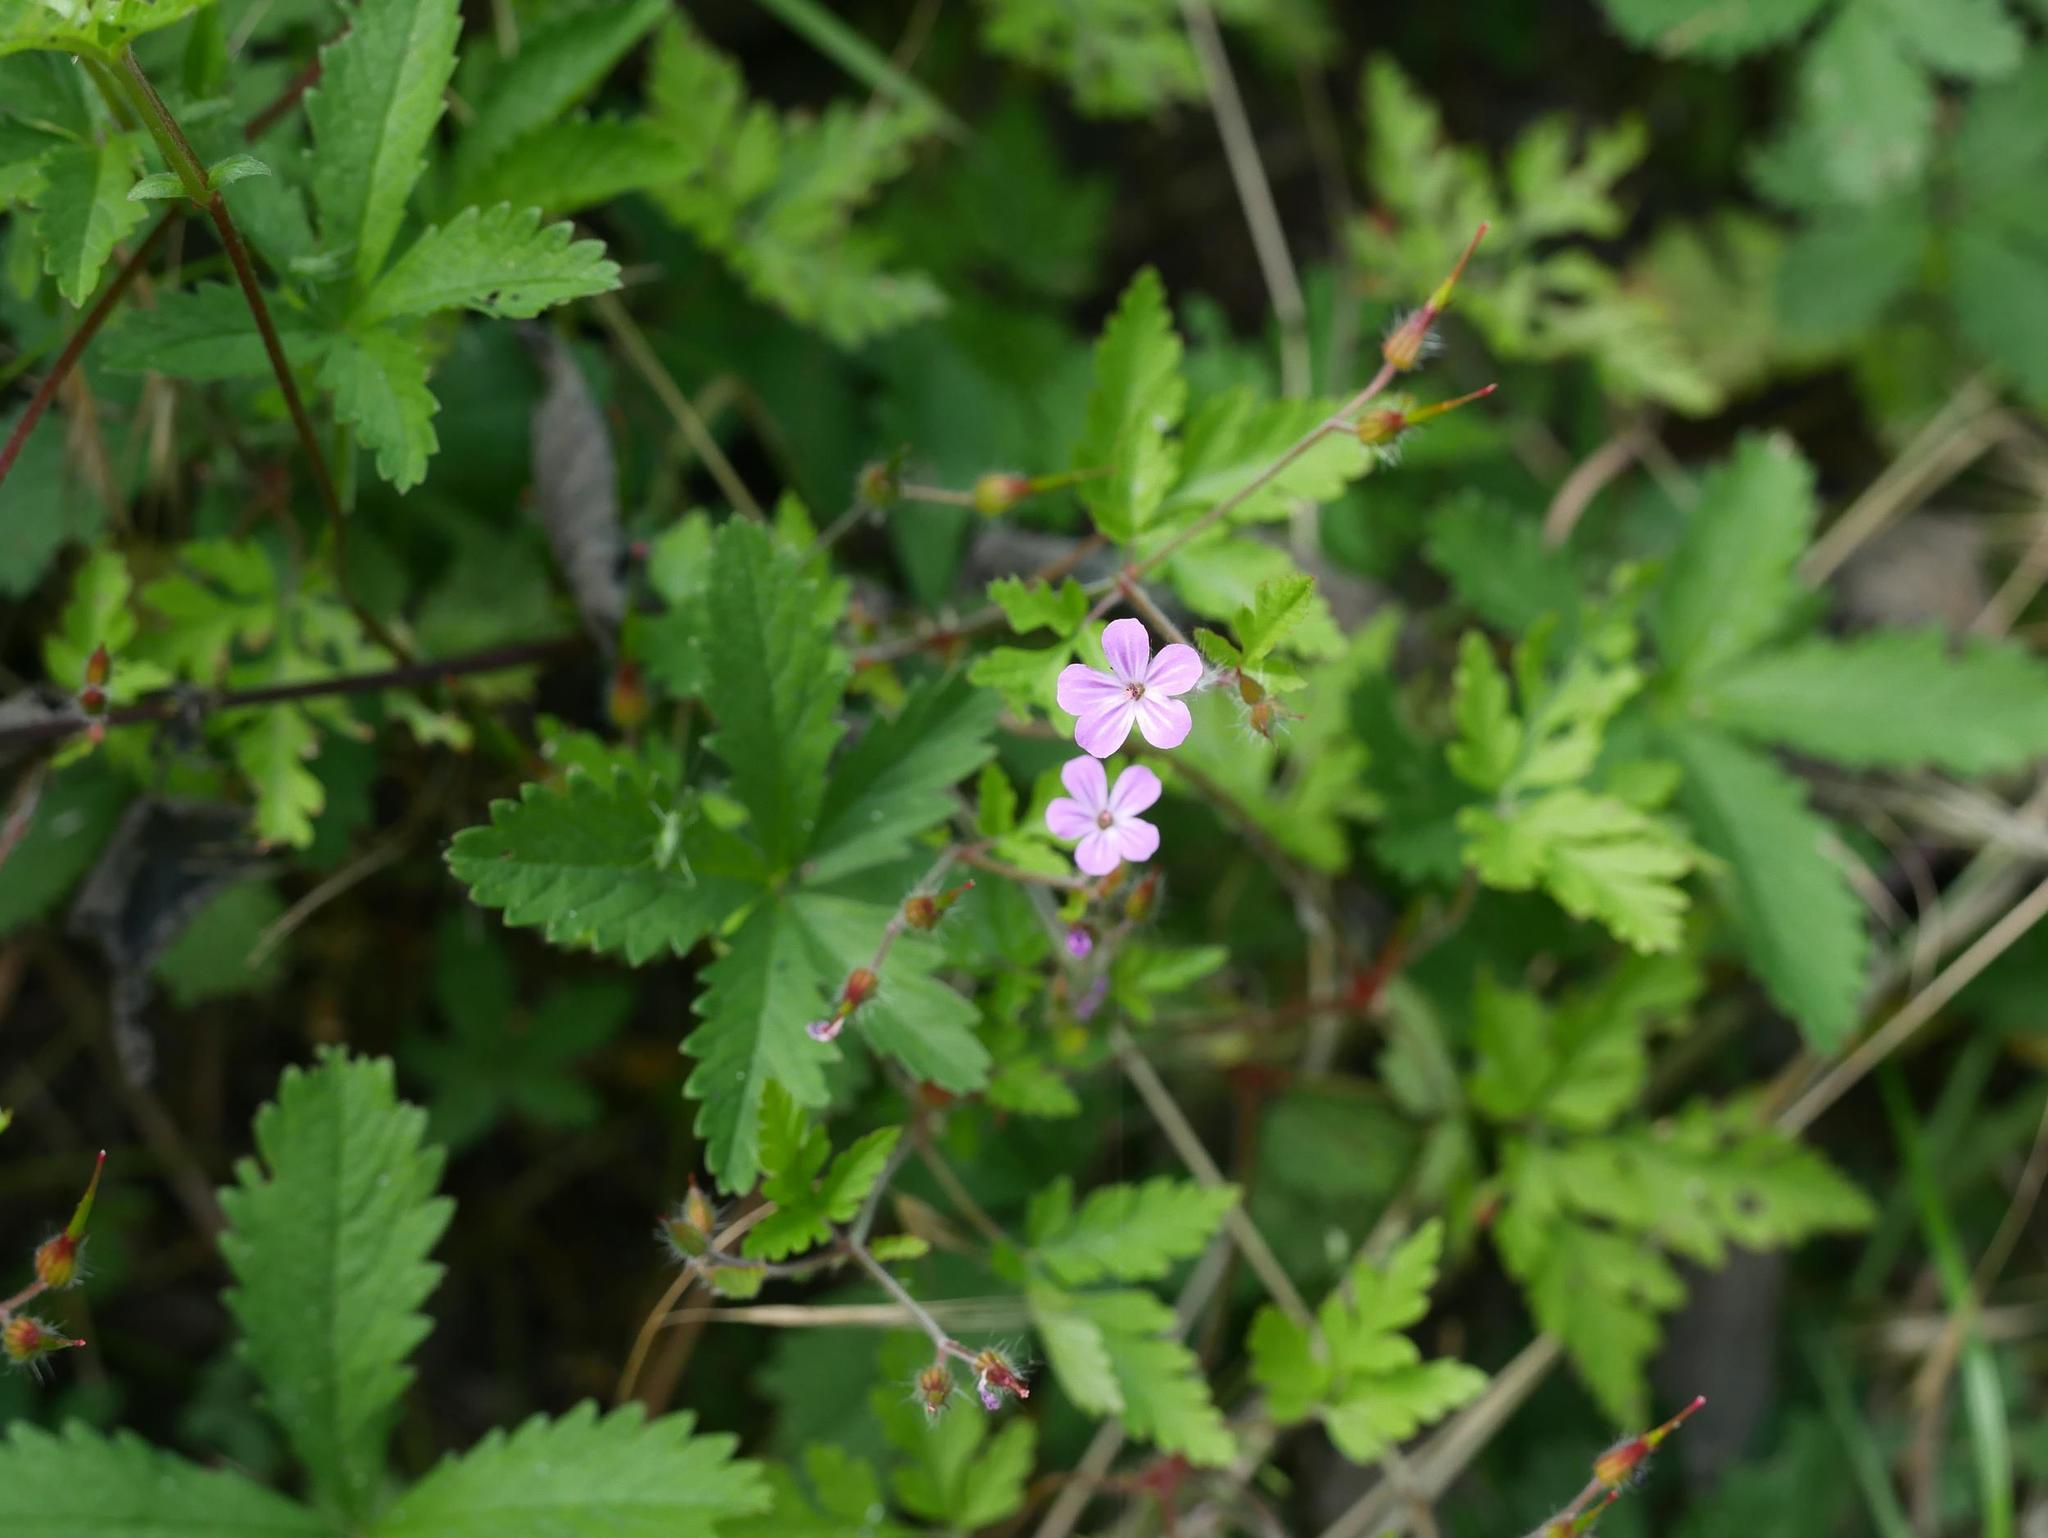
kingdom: Plantae
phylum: Tracheophyta
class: Magnoliopsida
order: Geraniales
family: Geraniaceae
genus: Geranium
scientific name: Geranium robertianum
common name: Herb-robert
